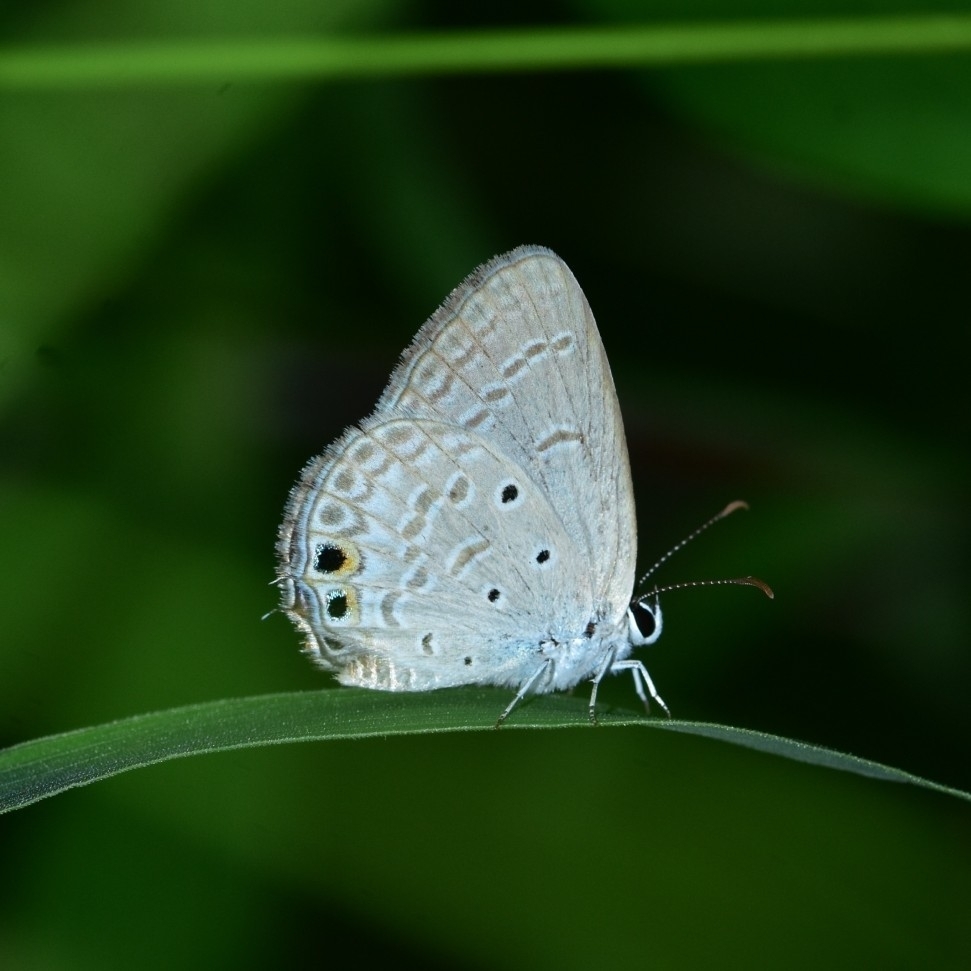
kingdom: Animalia
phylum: Arthropoda
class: Insecta
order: Lepidoptera
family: Lycaenidae
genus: Euchrysops
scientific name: Euchrysops cnejus
